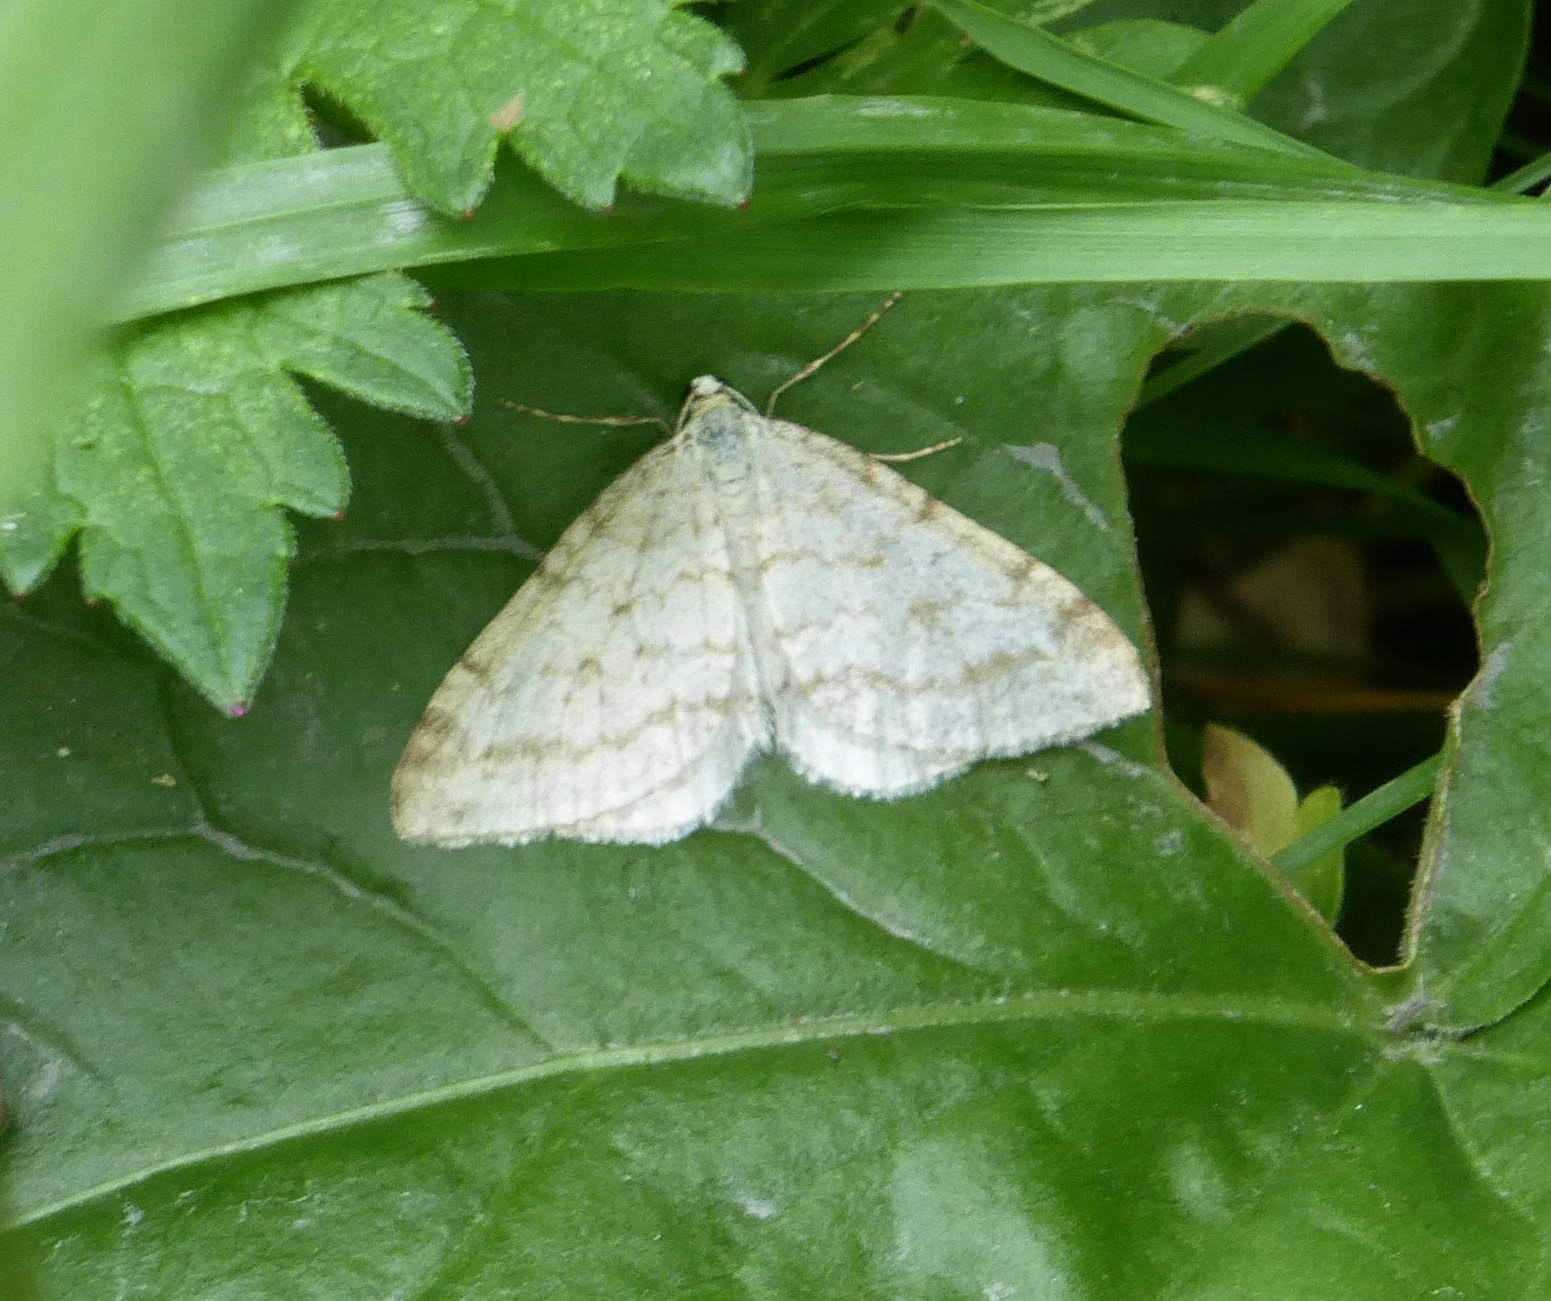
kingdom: Animalia
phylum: Arthropoda
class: Insecta
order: Lepidoptera
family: Geometridae
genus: Perizoma
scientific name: Perizoma verberata
